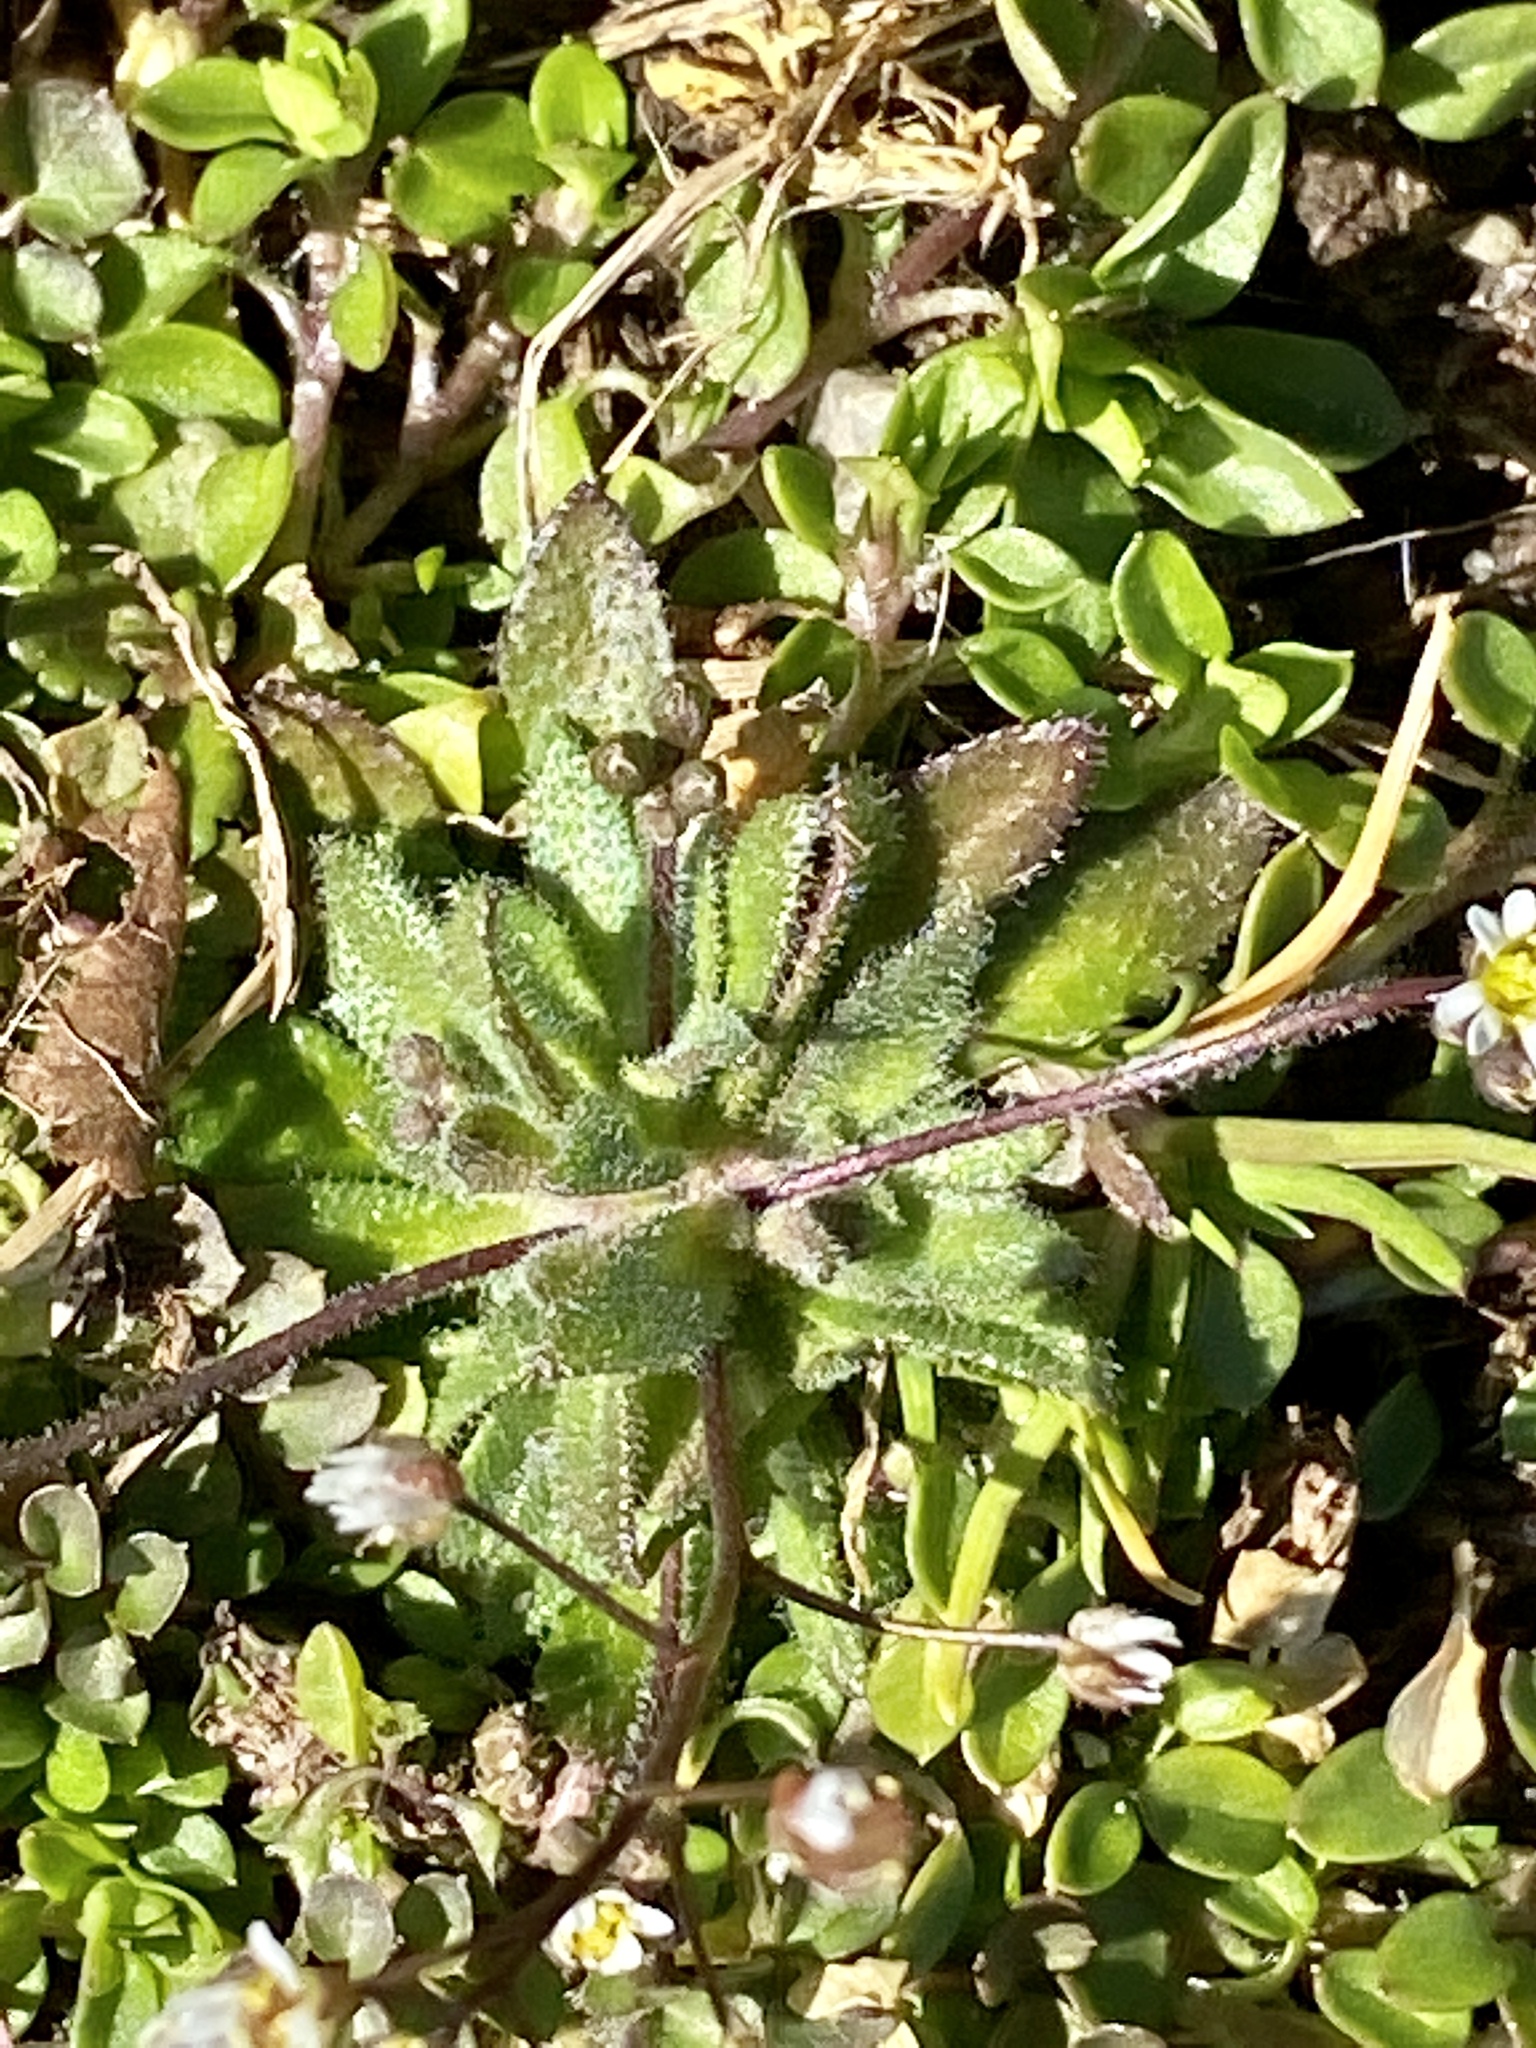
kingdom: Plantae
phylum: Tracheophyta
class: Magnoliopsida
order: Brassicales
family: Brassicaceae
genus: Draba
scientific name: Draba verna
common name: Spring draba
